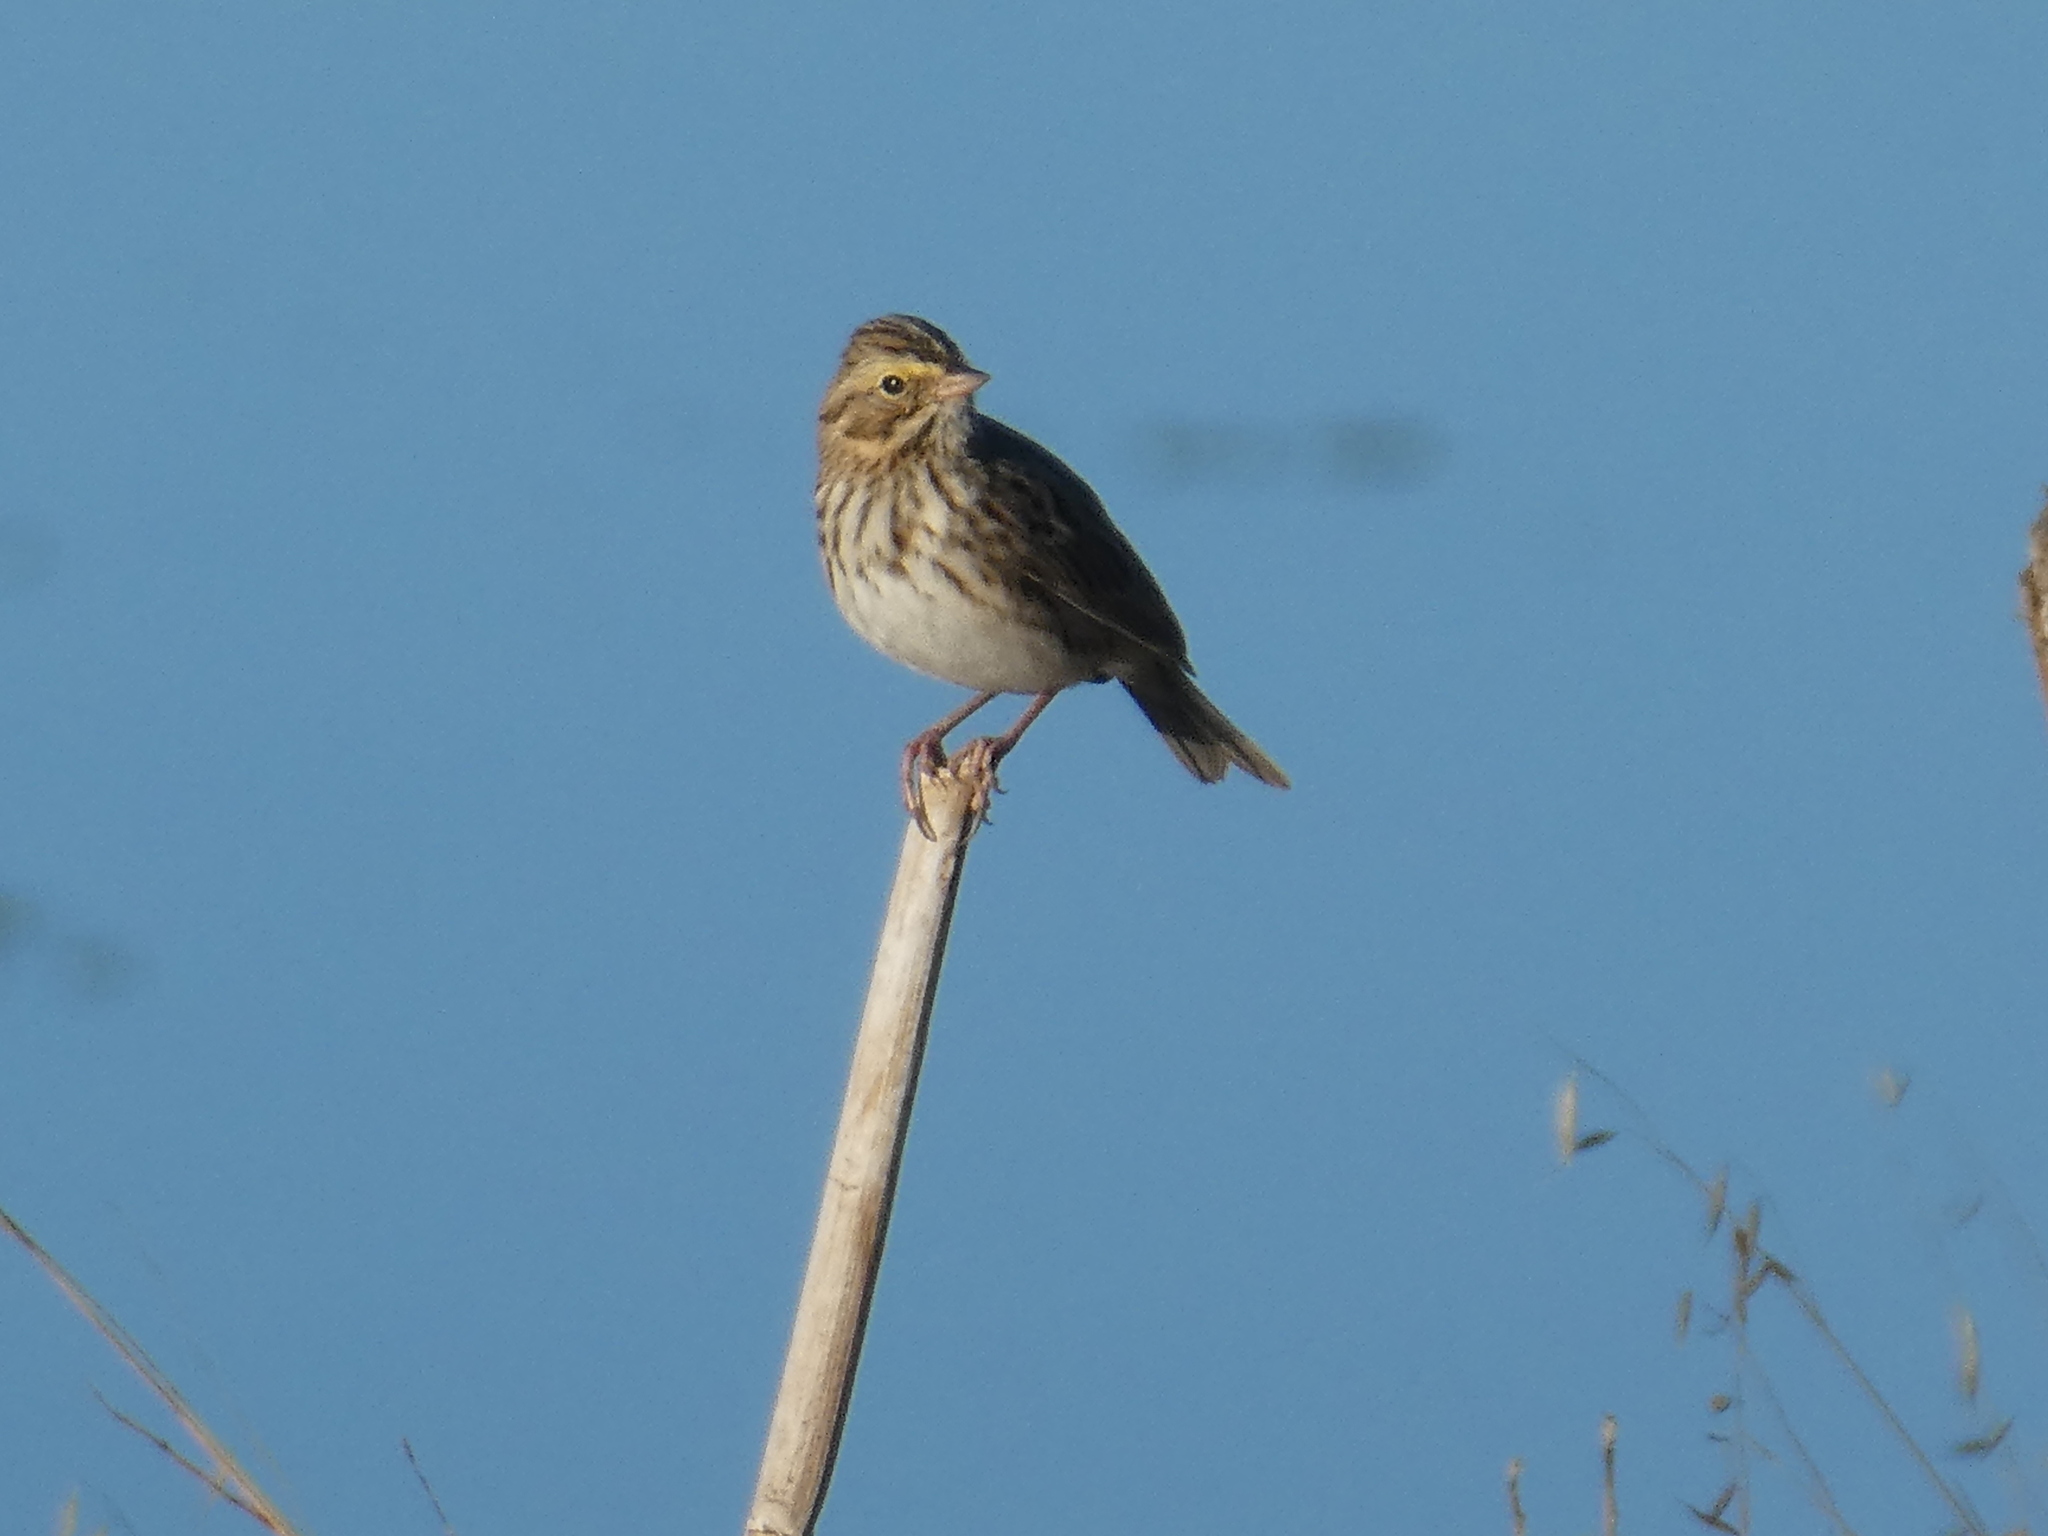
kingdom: Animalia
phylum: Chordata
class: Aves
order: Passeriformes
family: Passerellidae
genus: Passerculus
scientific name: Passerculus sandwichensis
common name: Savannah sparrow
